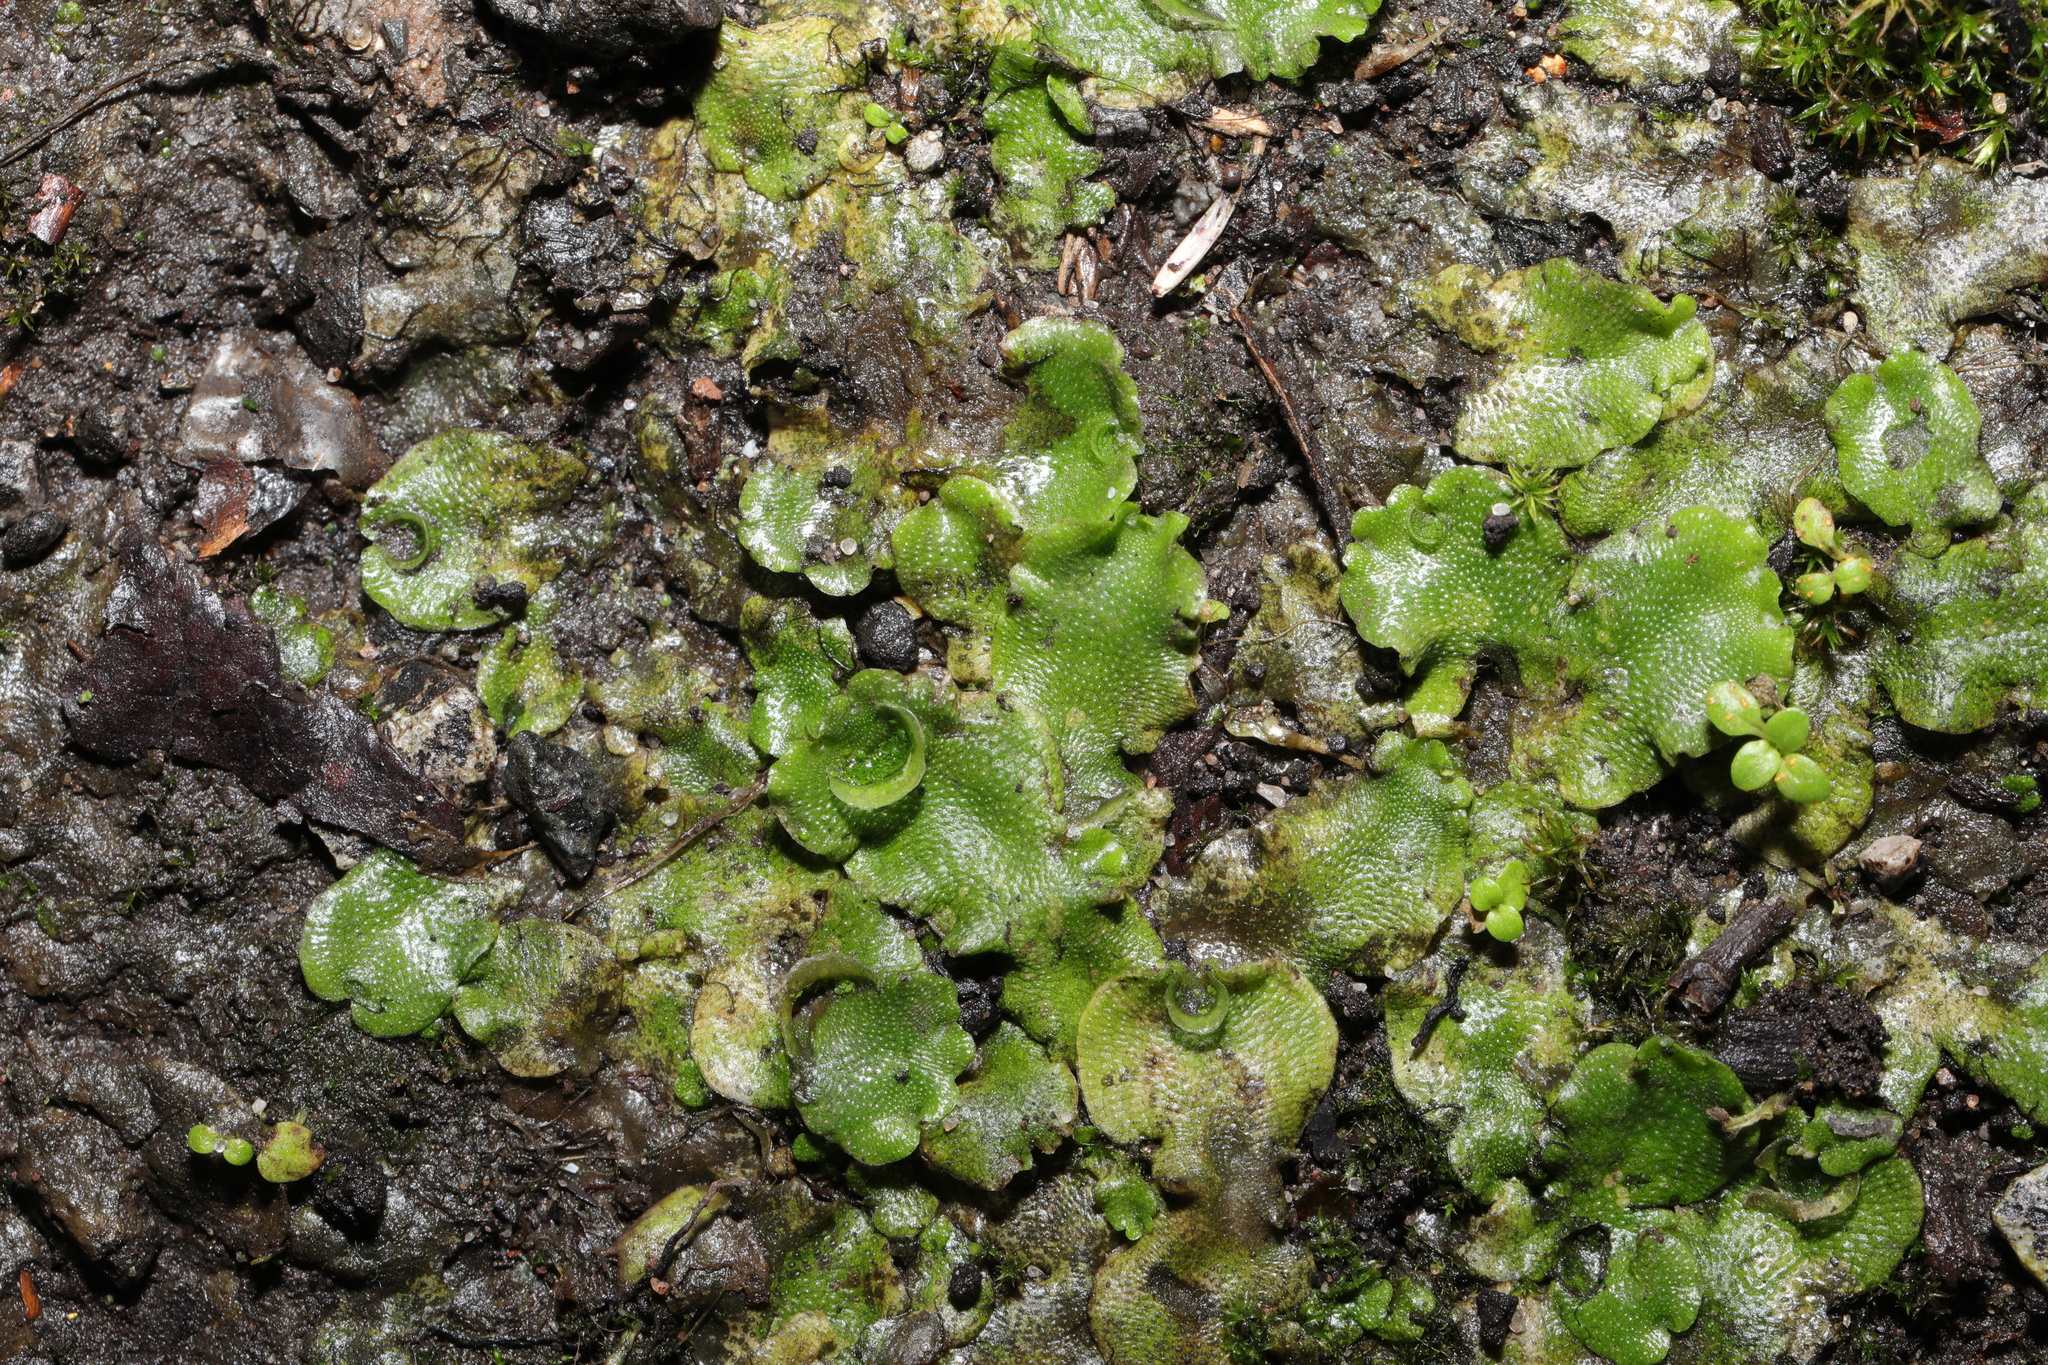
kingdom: Plantae
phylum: Marchantiophyta
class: Marchantiopsida
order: Lunulariales
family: Lunulariaceae
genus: Lunularia
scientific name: Lunularia cruciata
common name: Crescent-cup liverwort
